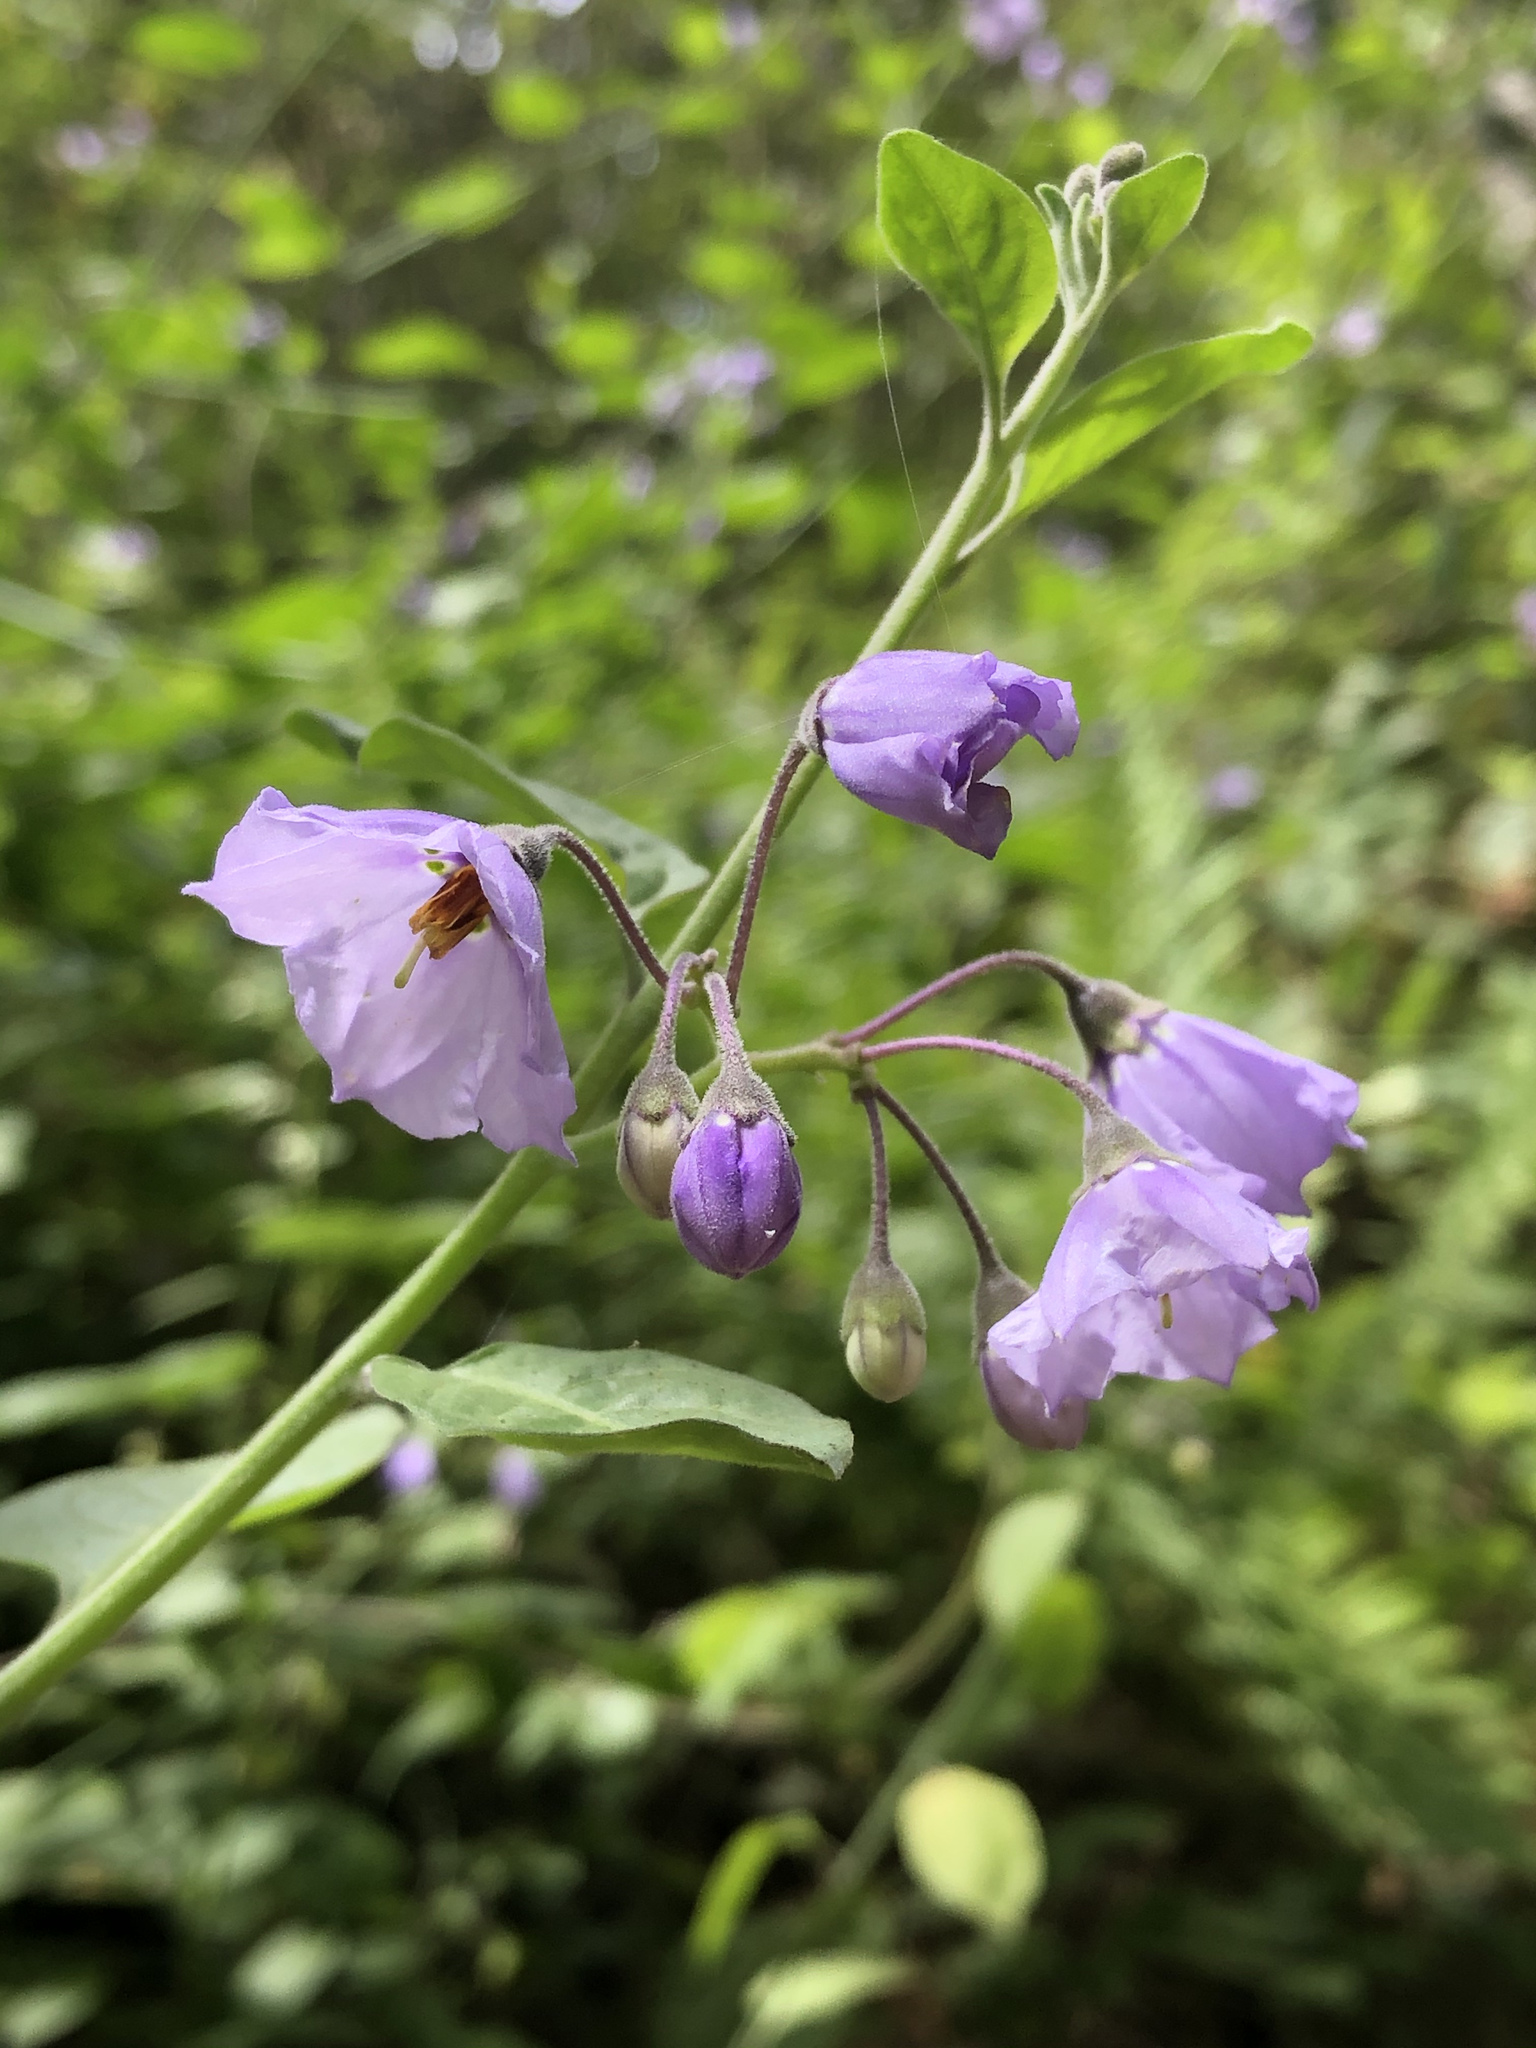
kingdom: Plantae
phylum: Tracheophyta
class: Magnoliopsida
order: Solanales
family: Solanaceae
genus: Solanum
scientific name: Solanum umbelliferum
